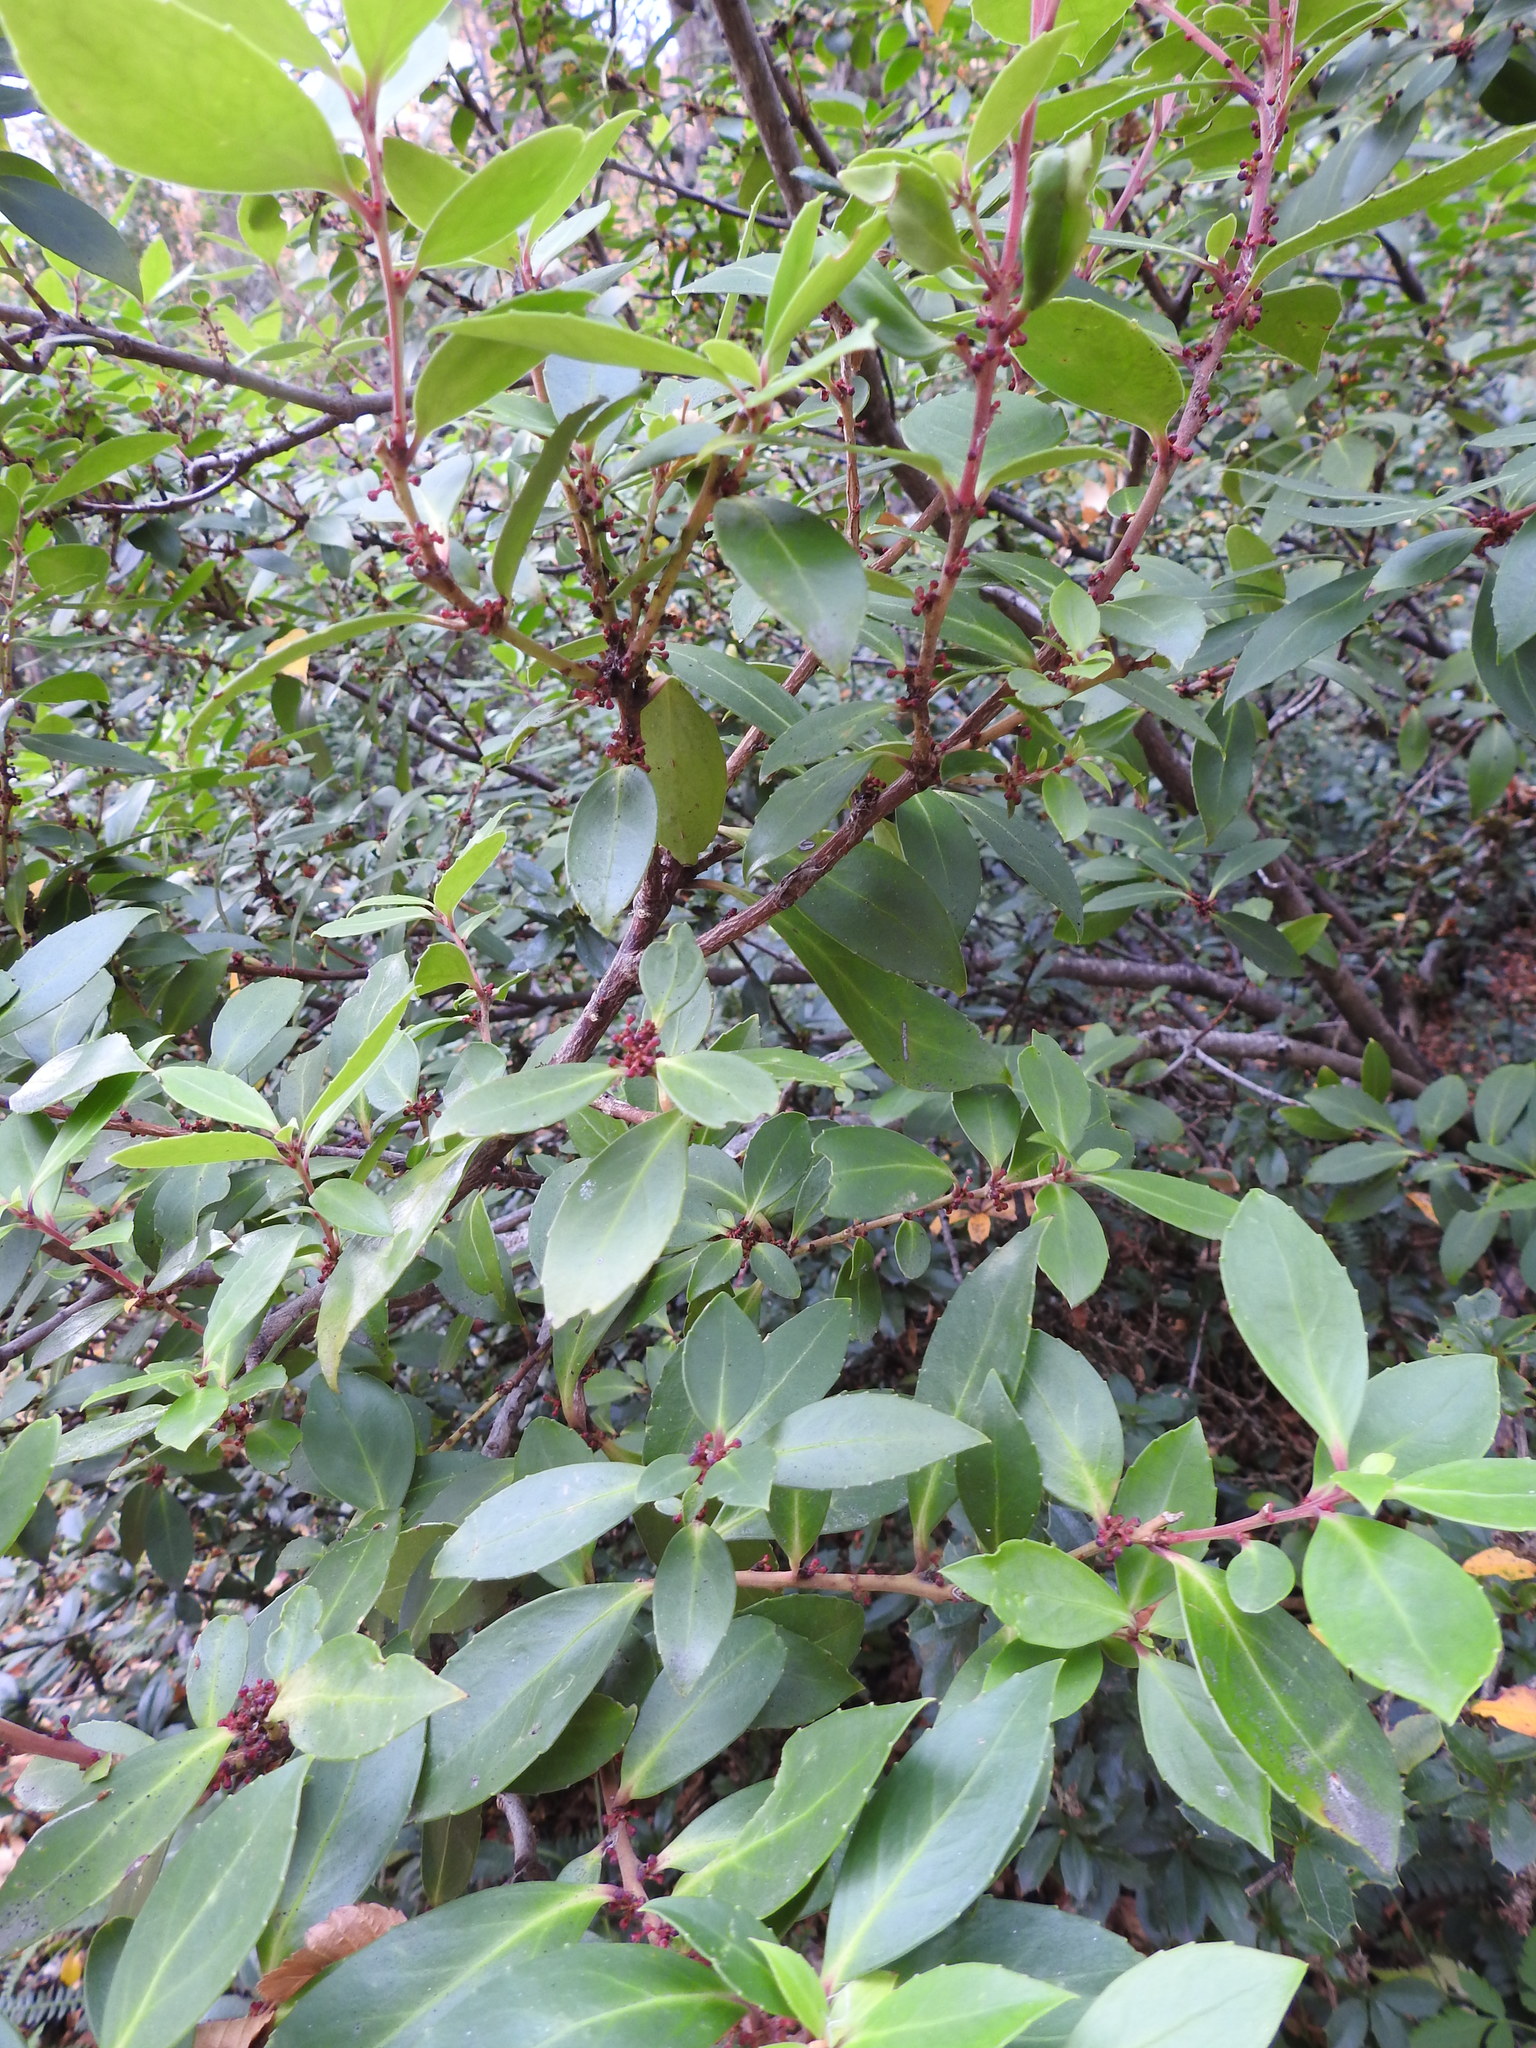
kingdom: Plantae
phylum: Tracheophyta
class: Magnoliopsida
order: Celastrales
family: Celastraceae
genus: Maytenus
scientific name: Maytenus magellanica
